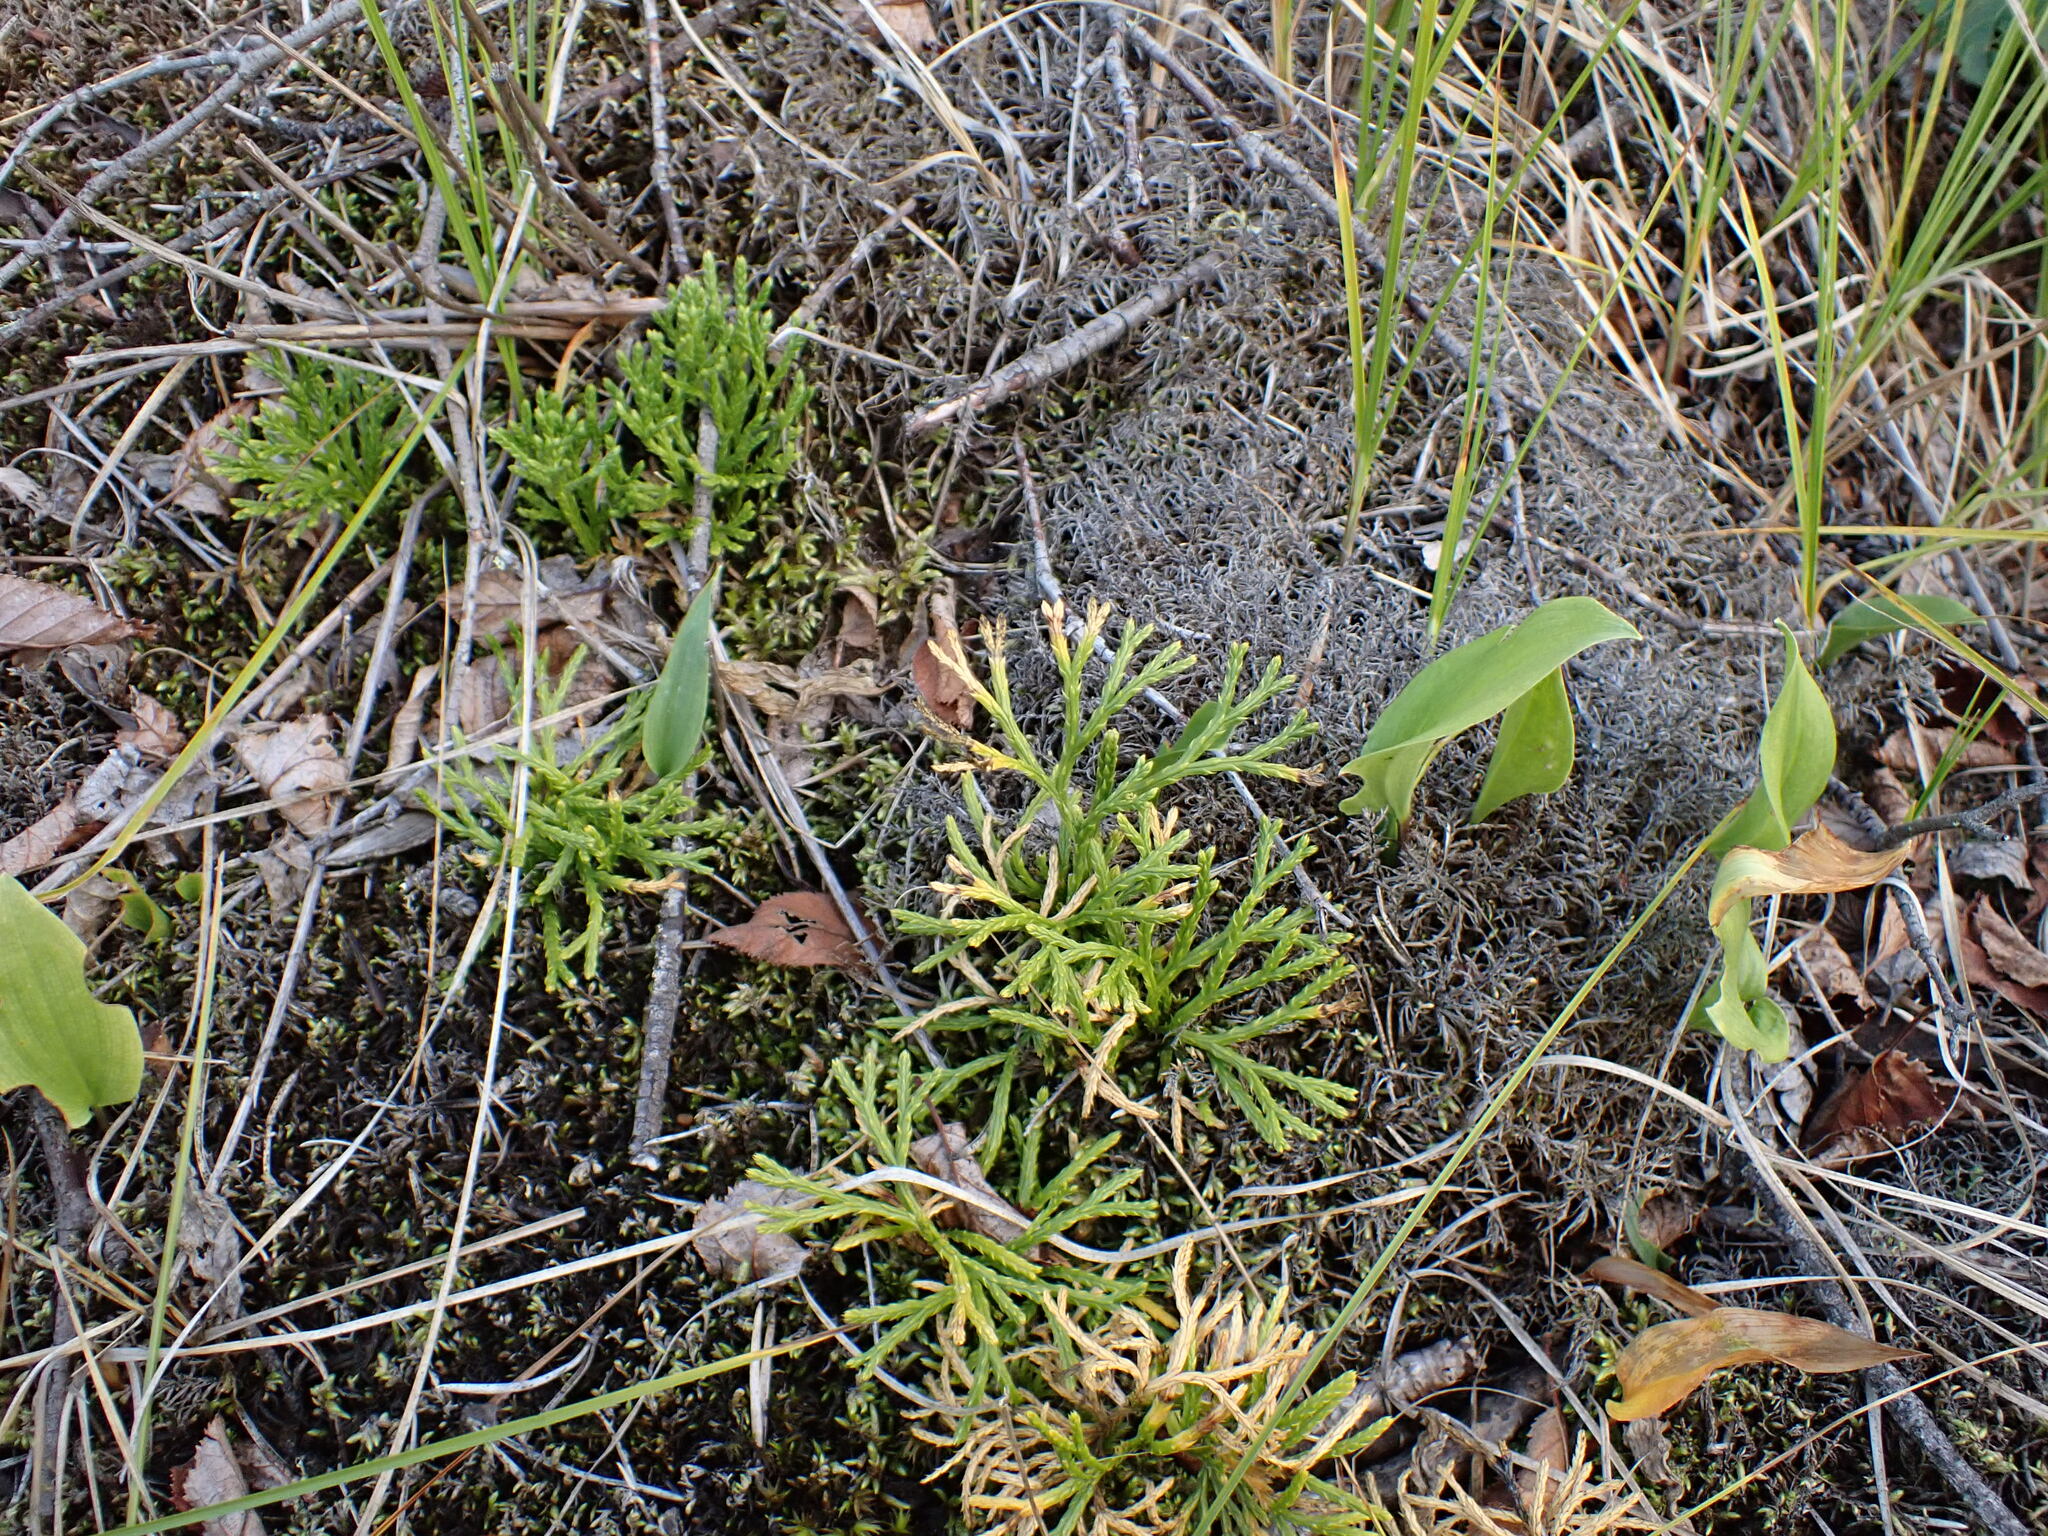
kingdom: Plantae
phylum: Tracheophyta
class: Lycopodiopsida
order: Lycopodiales
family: Lycopodiaceae
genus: Diphasiastrum
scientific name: Diphasiastrum complanatum
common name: Northern running-pine
